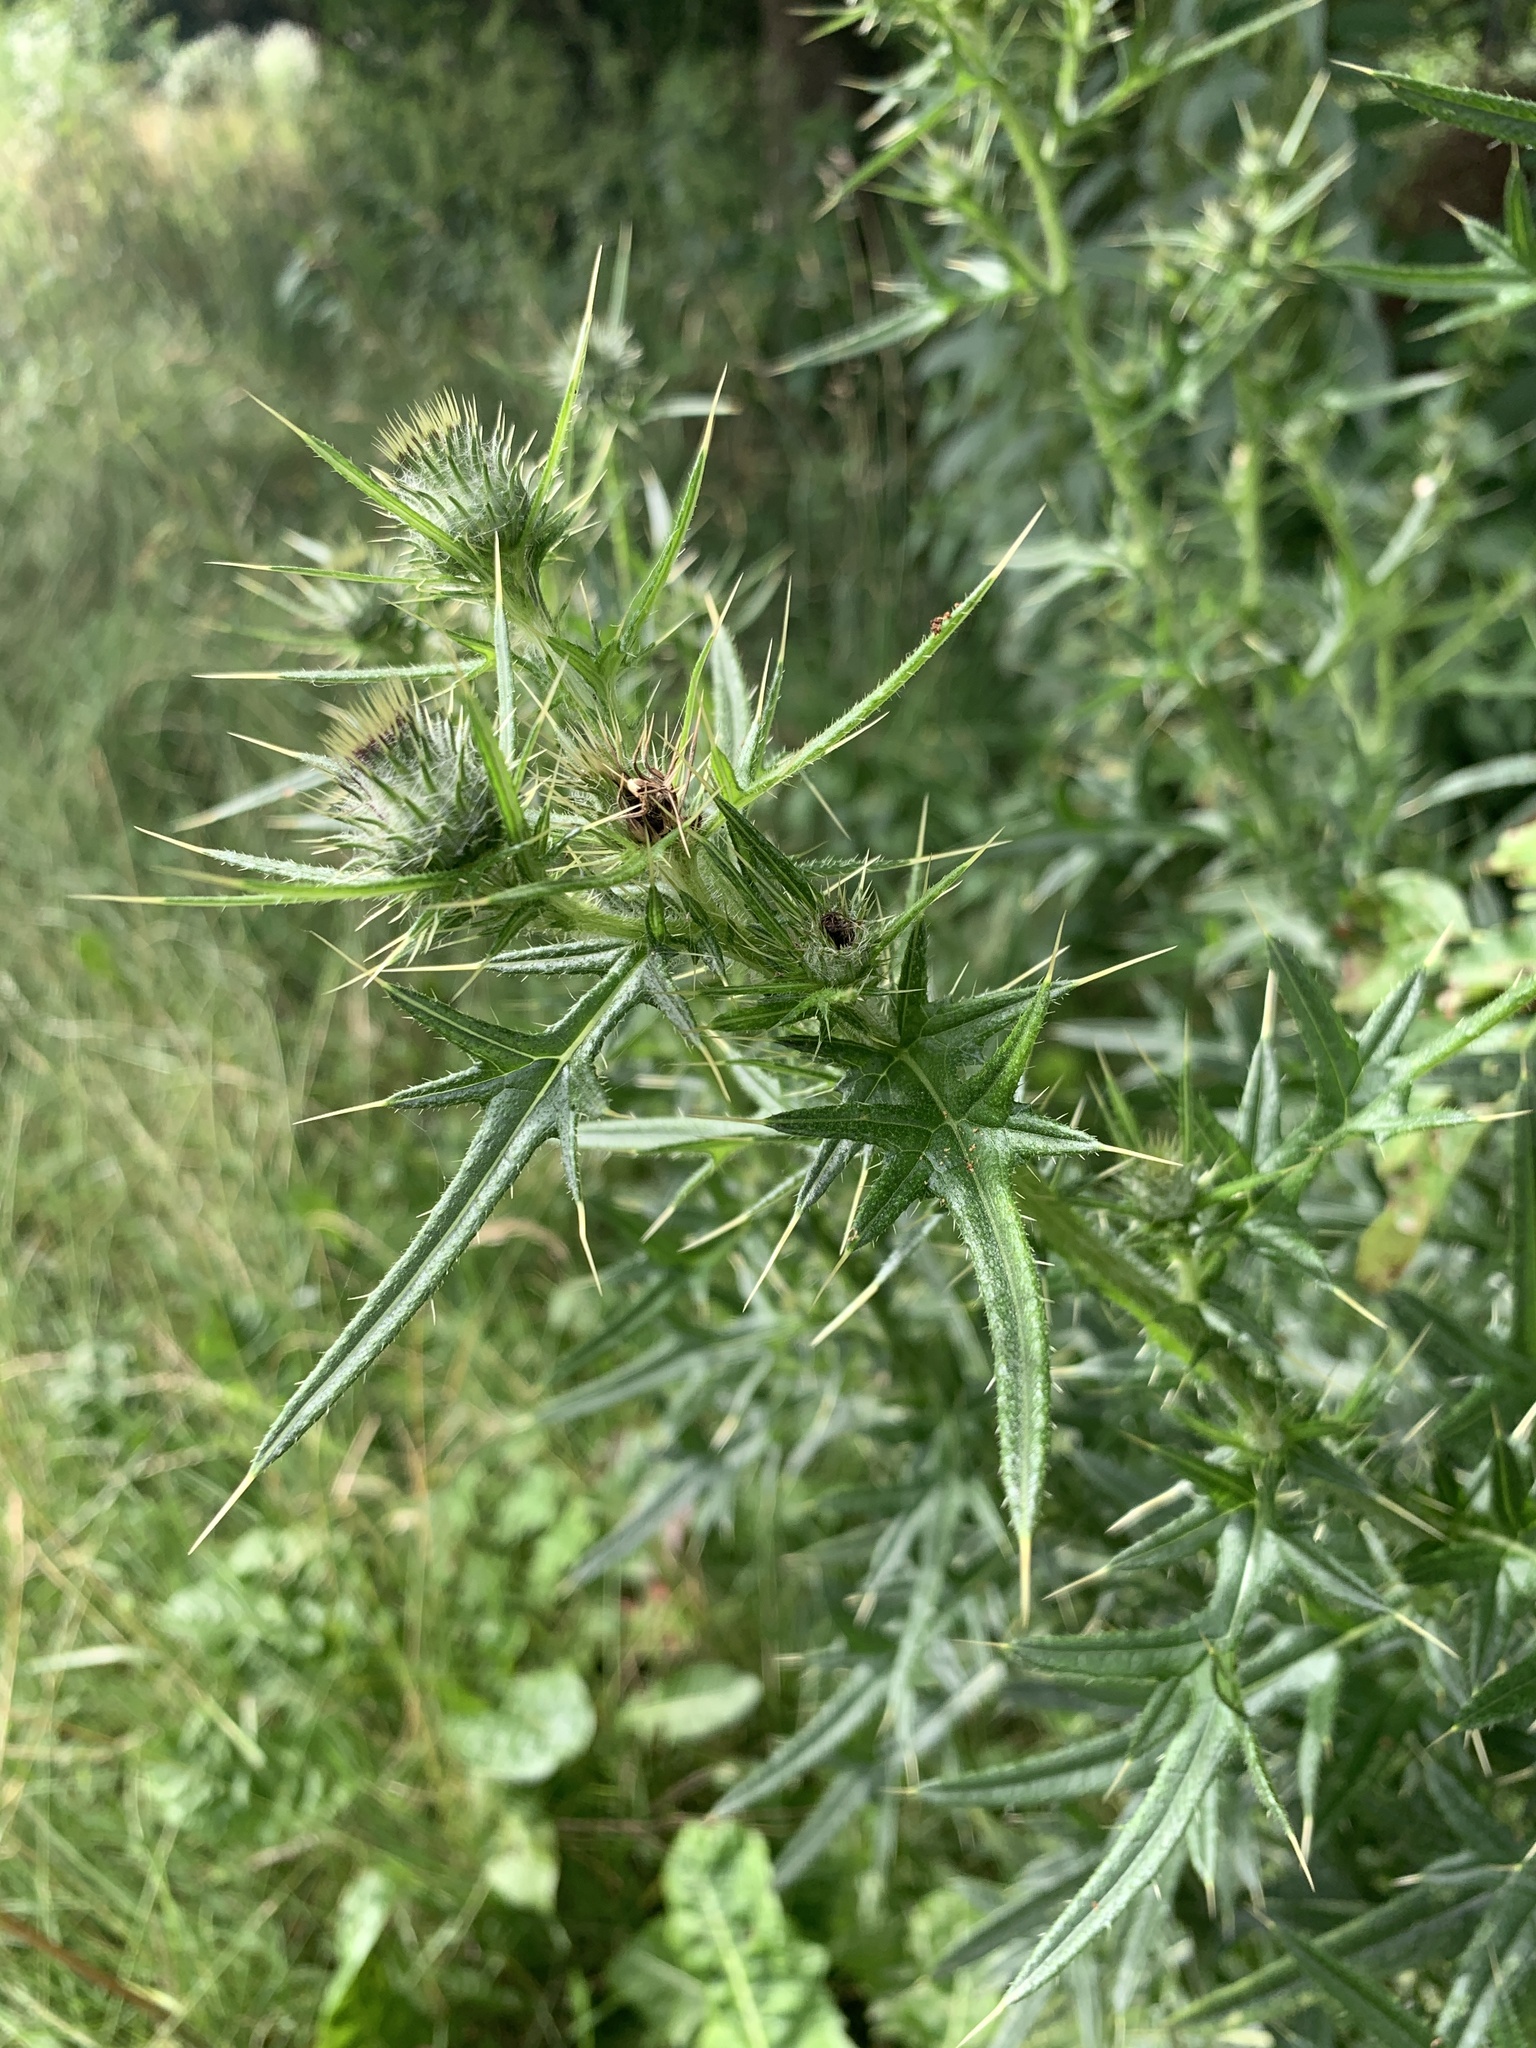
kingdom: Plantae
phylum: Tracheophyta
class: Magnoliopsida
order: Asterales
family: Asteraceae
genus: Cirsium
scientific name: Cirsium vulgare
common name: Bull thistle
